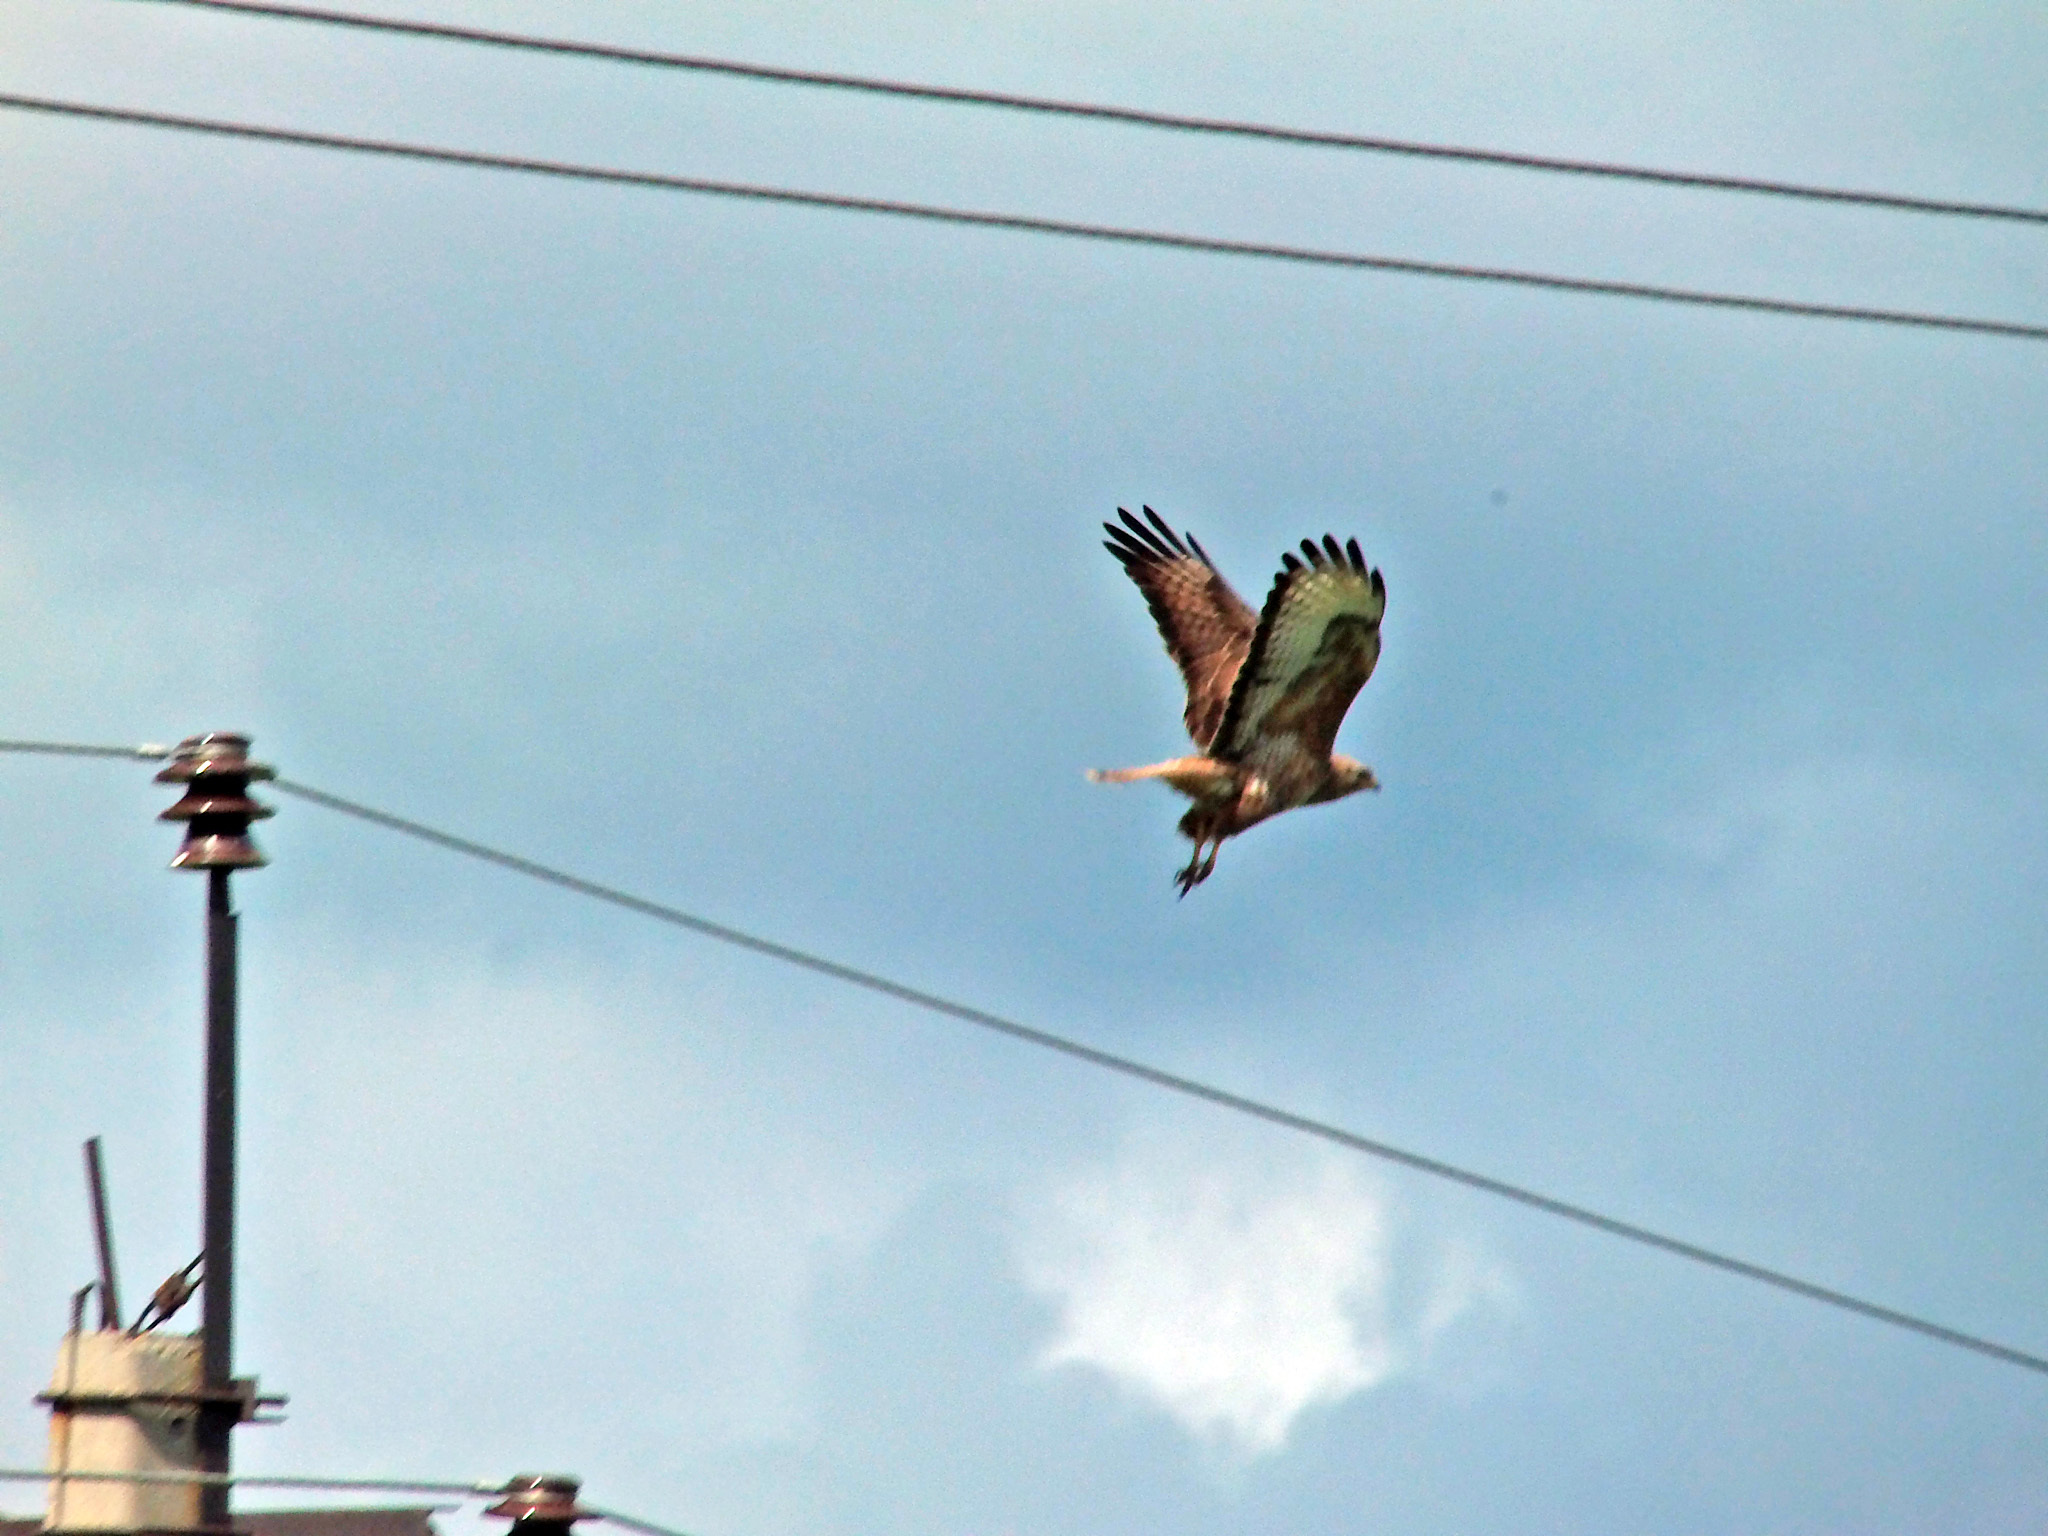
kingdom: Animalia
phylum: Chordata
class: Aves
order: Accipitriformes
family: Accipitridae
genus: Buteo
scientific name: Buteo buteo
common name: Common buzzard
